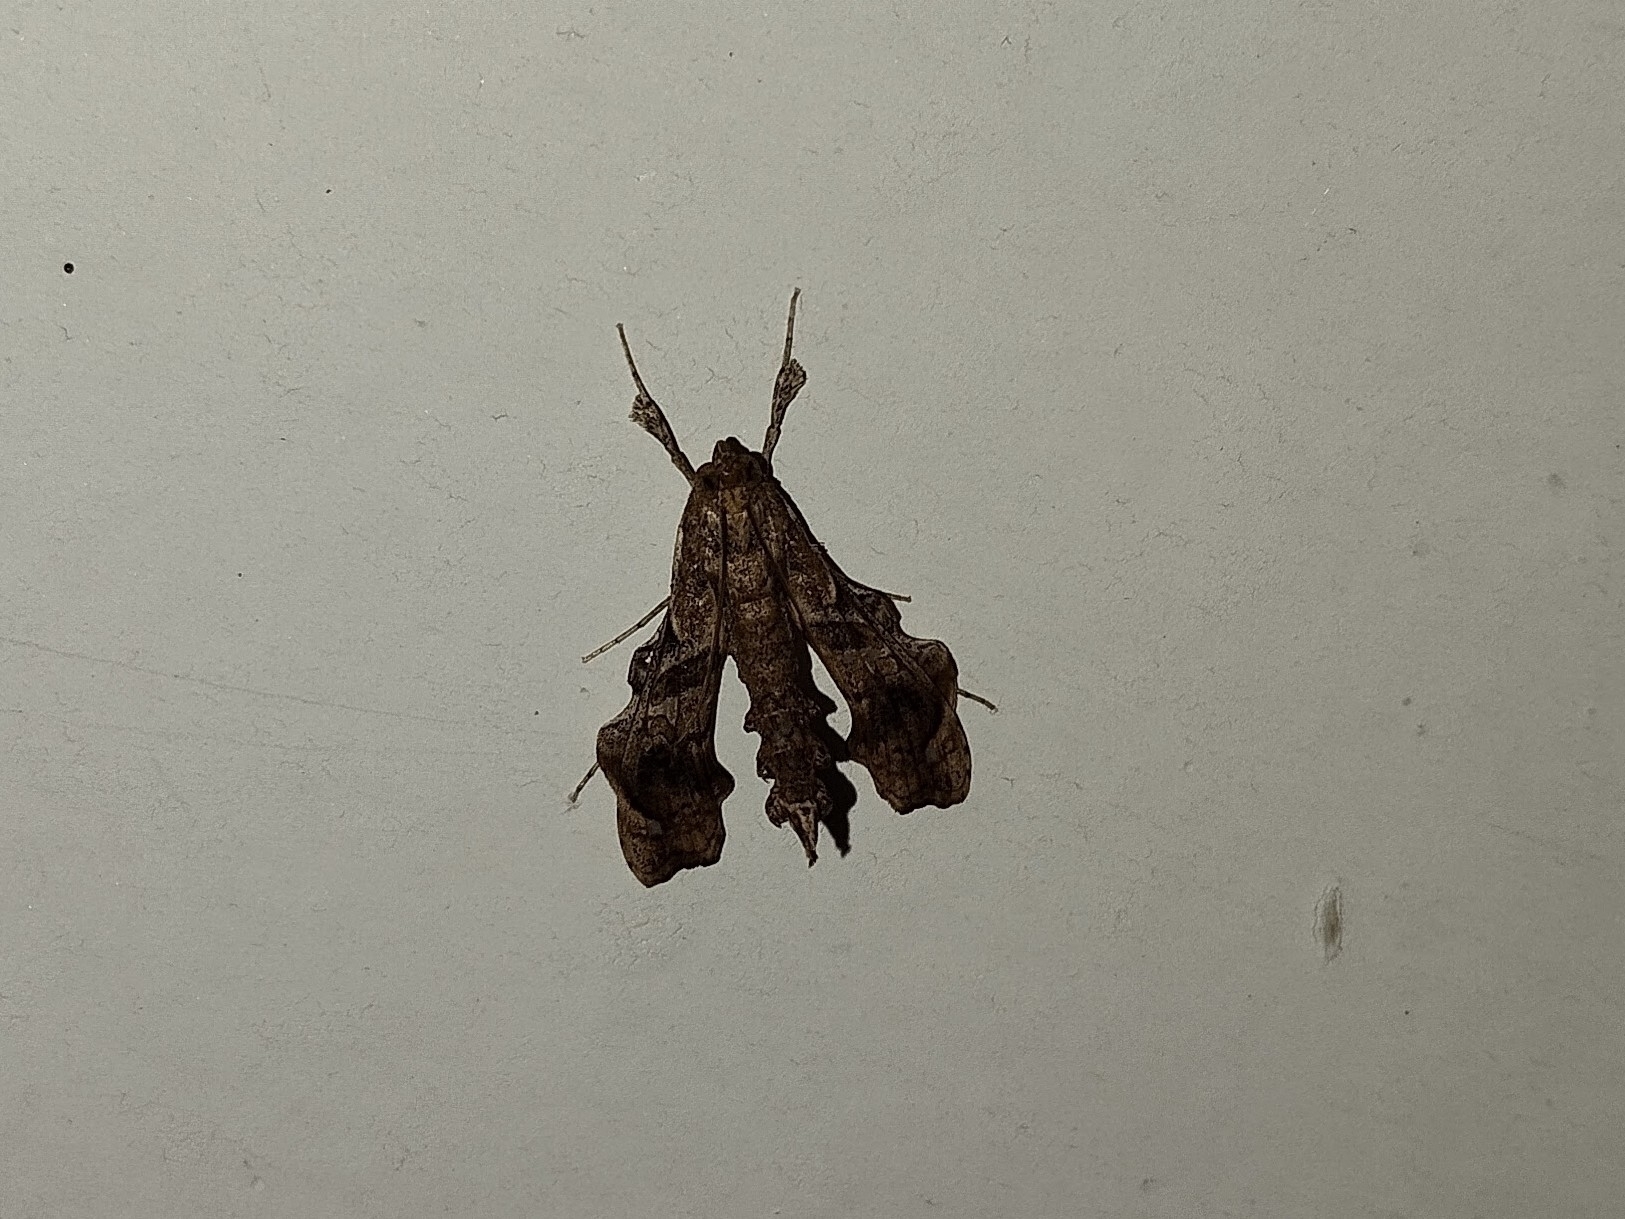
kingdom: Animalia
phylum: Arthropoda
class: Insecta
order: Lepidoptera
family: Crambidae
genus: Terastia
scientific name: Terastia meticulosalis
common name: Moth
